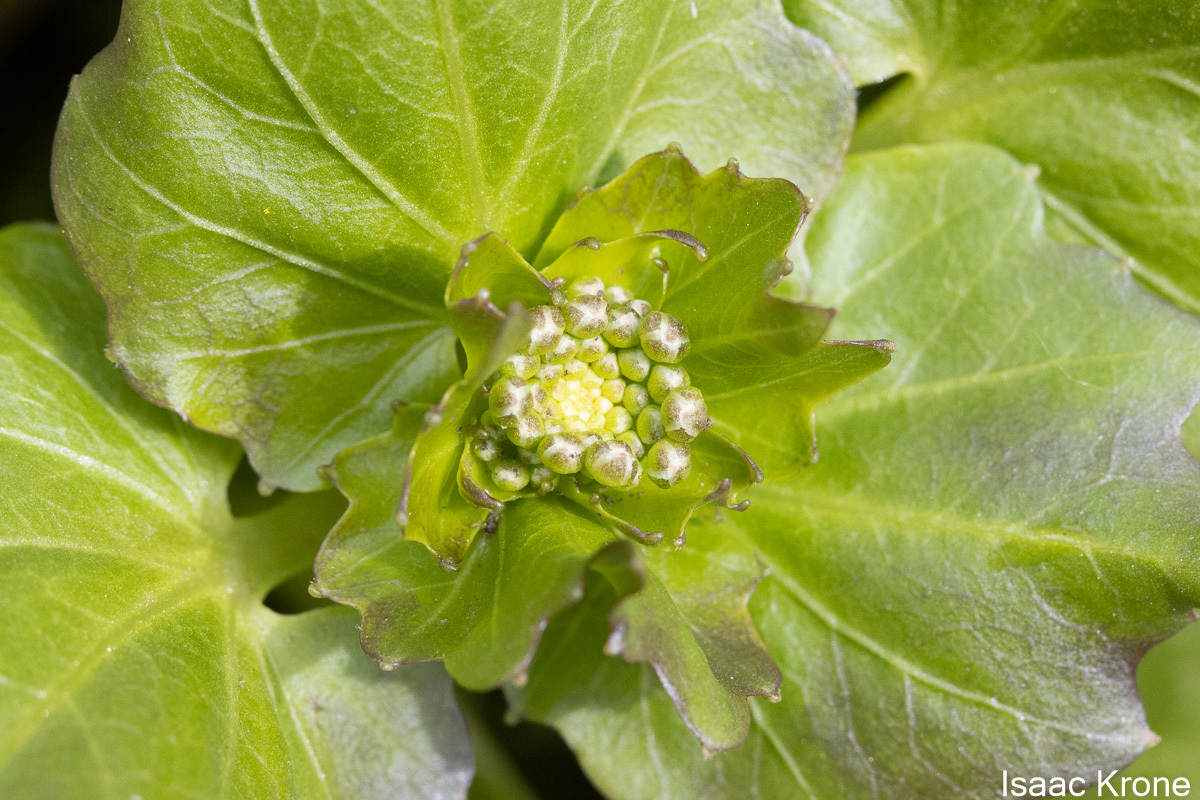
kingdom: Plantae
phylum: Tracheophyta
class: Magnoliopsida
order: Brassicales
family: Brassicaceae
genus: Cardamine
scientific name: Cardamine cordifolia
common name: Heart-leaf bittercress
